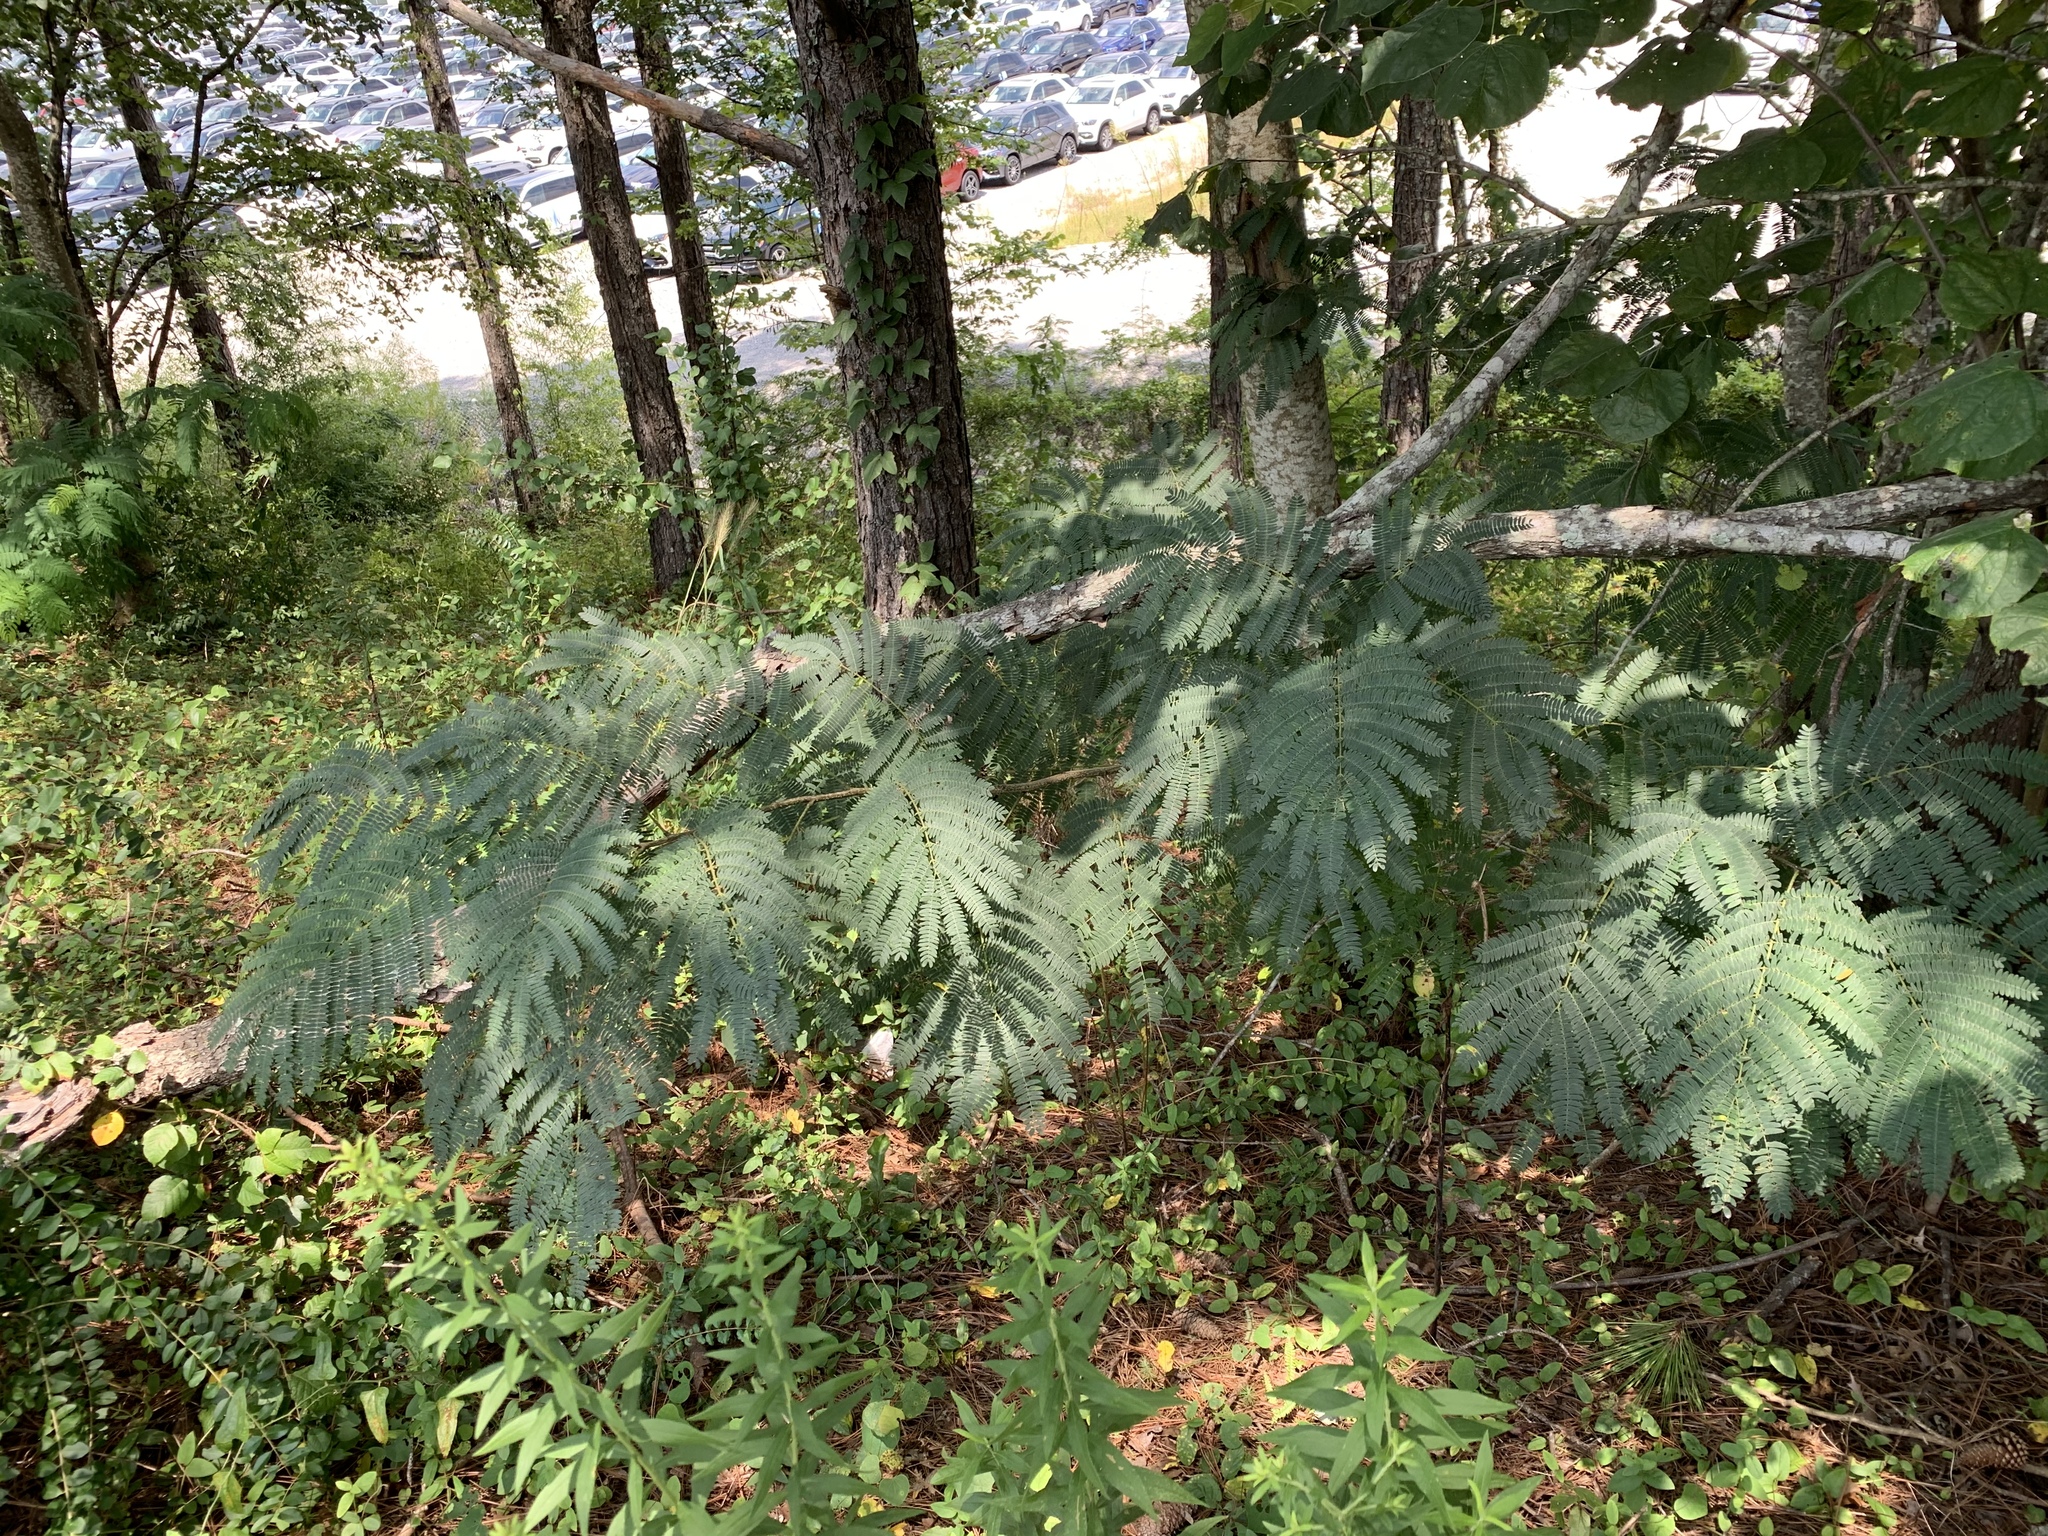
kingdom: Plantae
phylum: Tracheophyta
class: Magnoliopsida
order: Fabales
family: Fabaceae
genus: Albizia
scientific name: Albizia julibrissin
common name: Silktree
